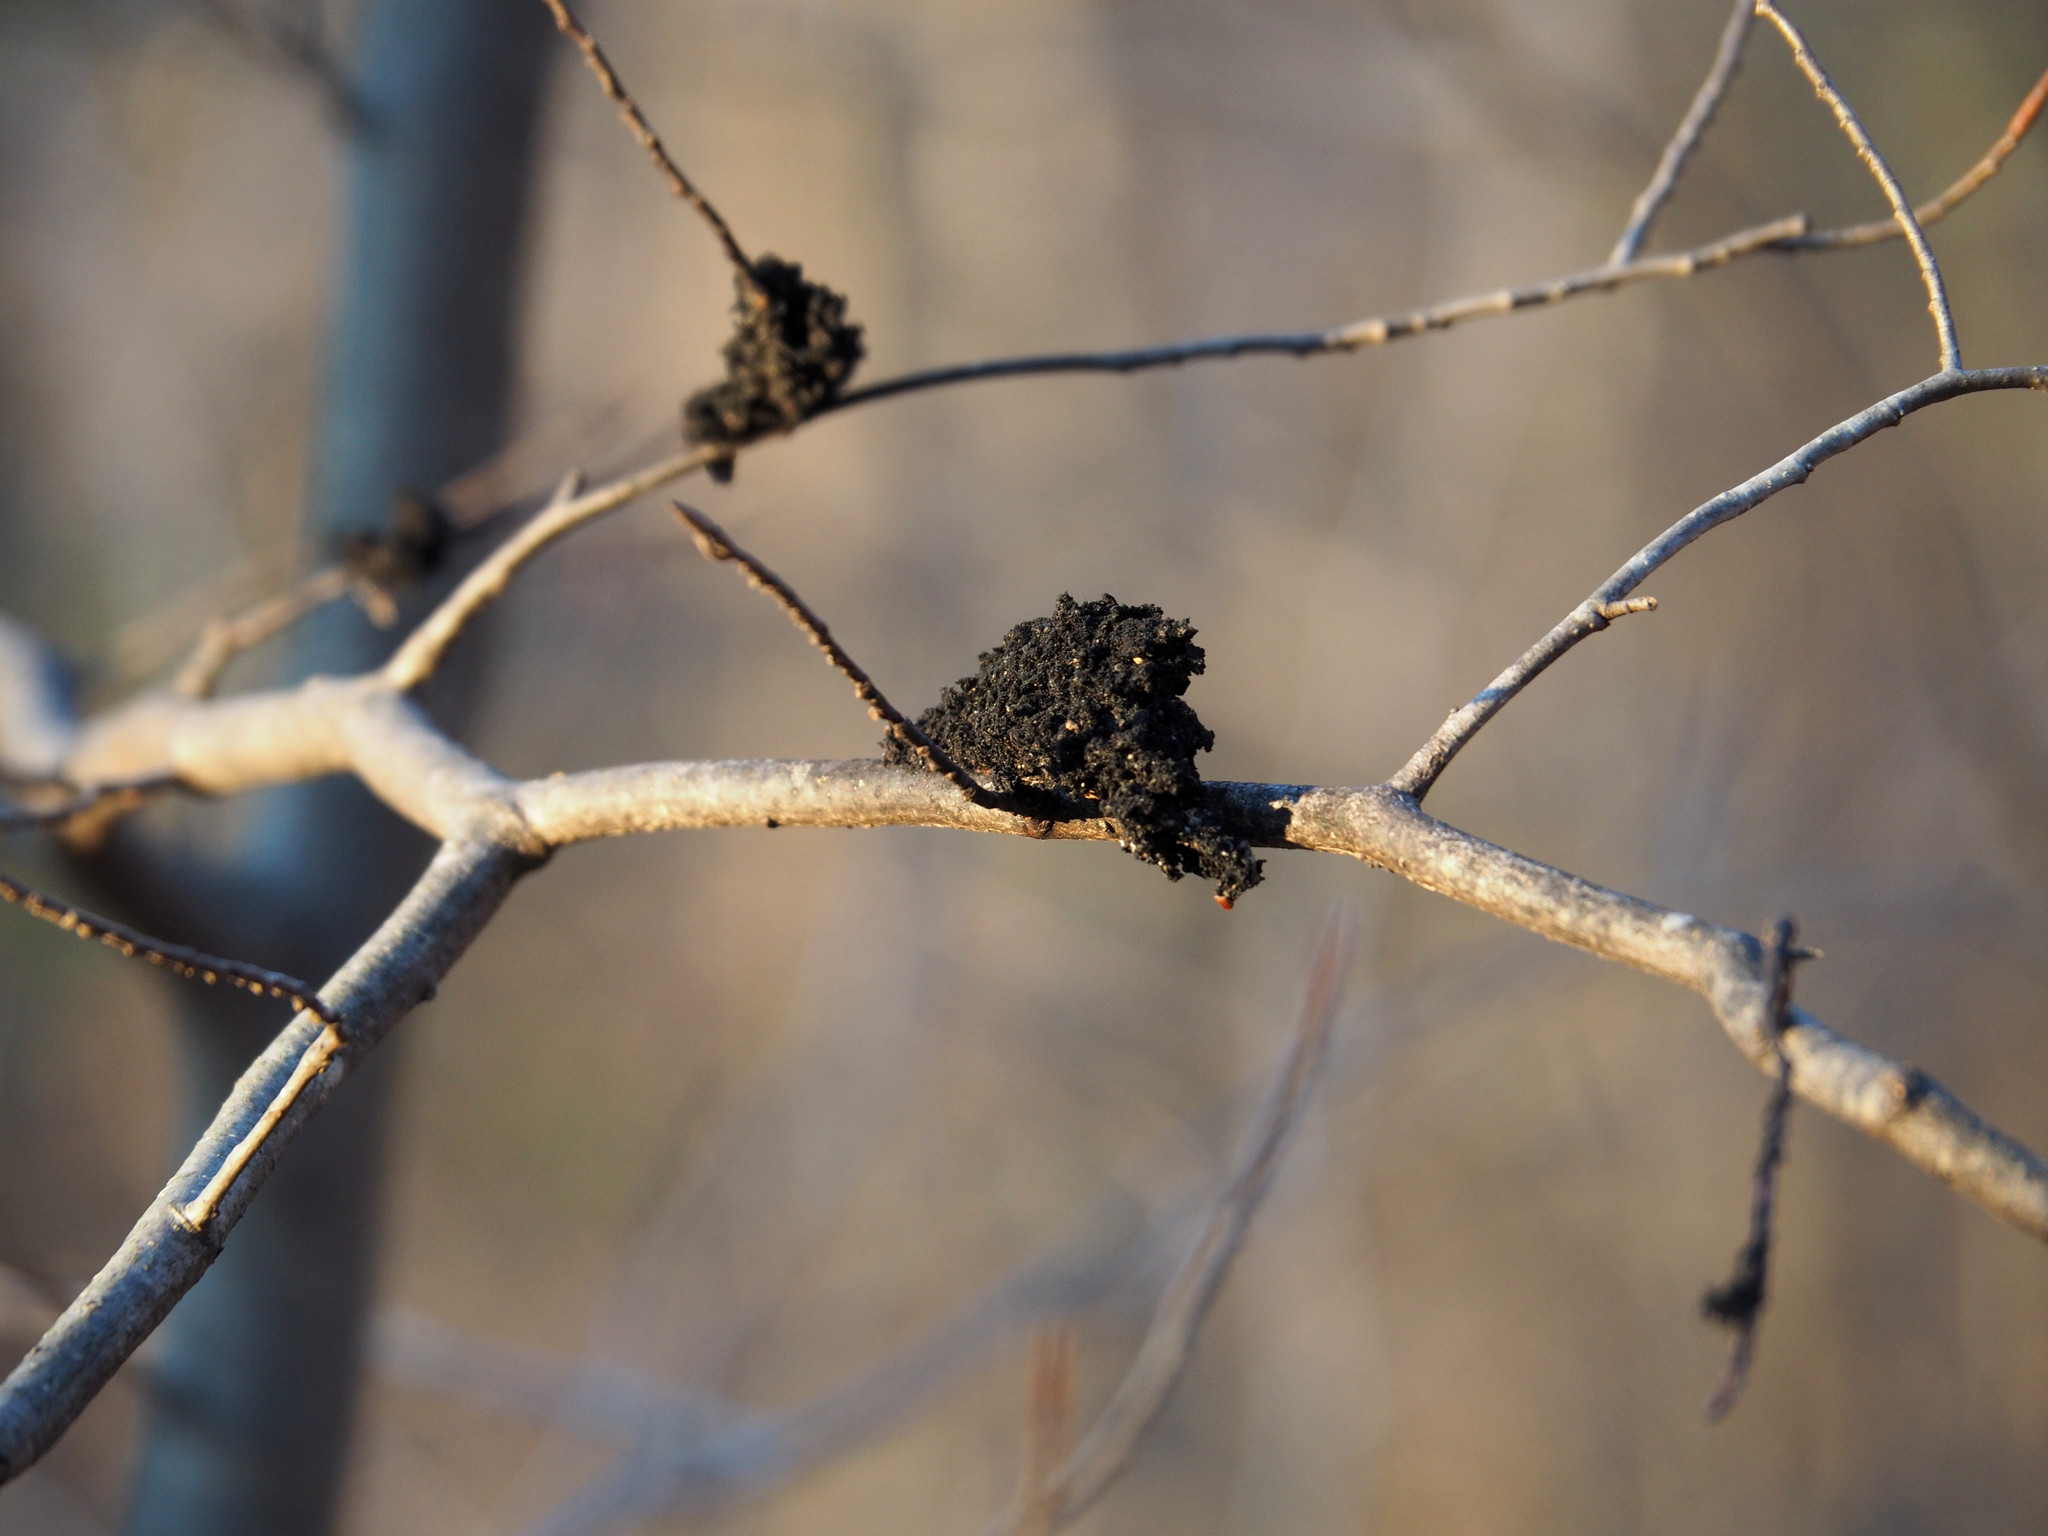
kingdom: Fungi
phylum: Ascomycota
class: Dothideomycetes
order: Capnodiales
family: Capnodiaceae
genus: Scorias
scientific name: Scorias spongiosa
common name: Black sooty mold
